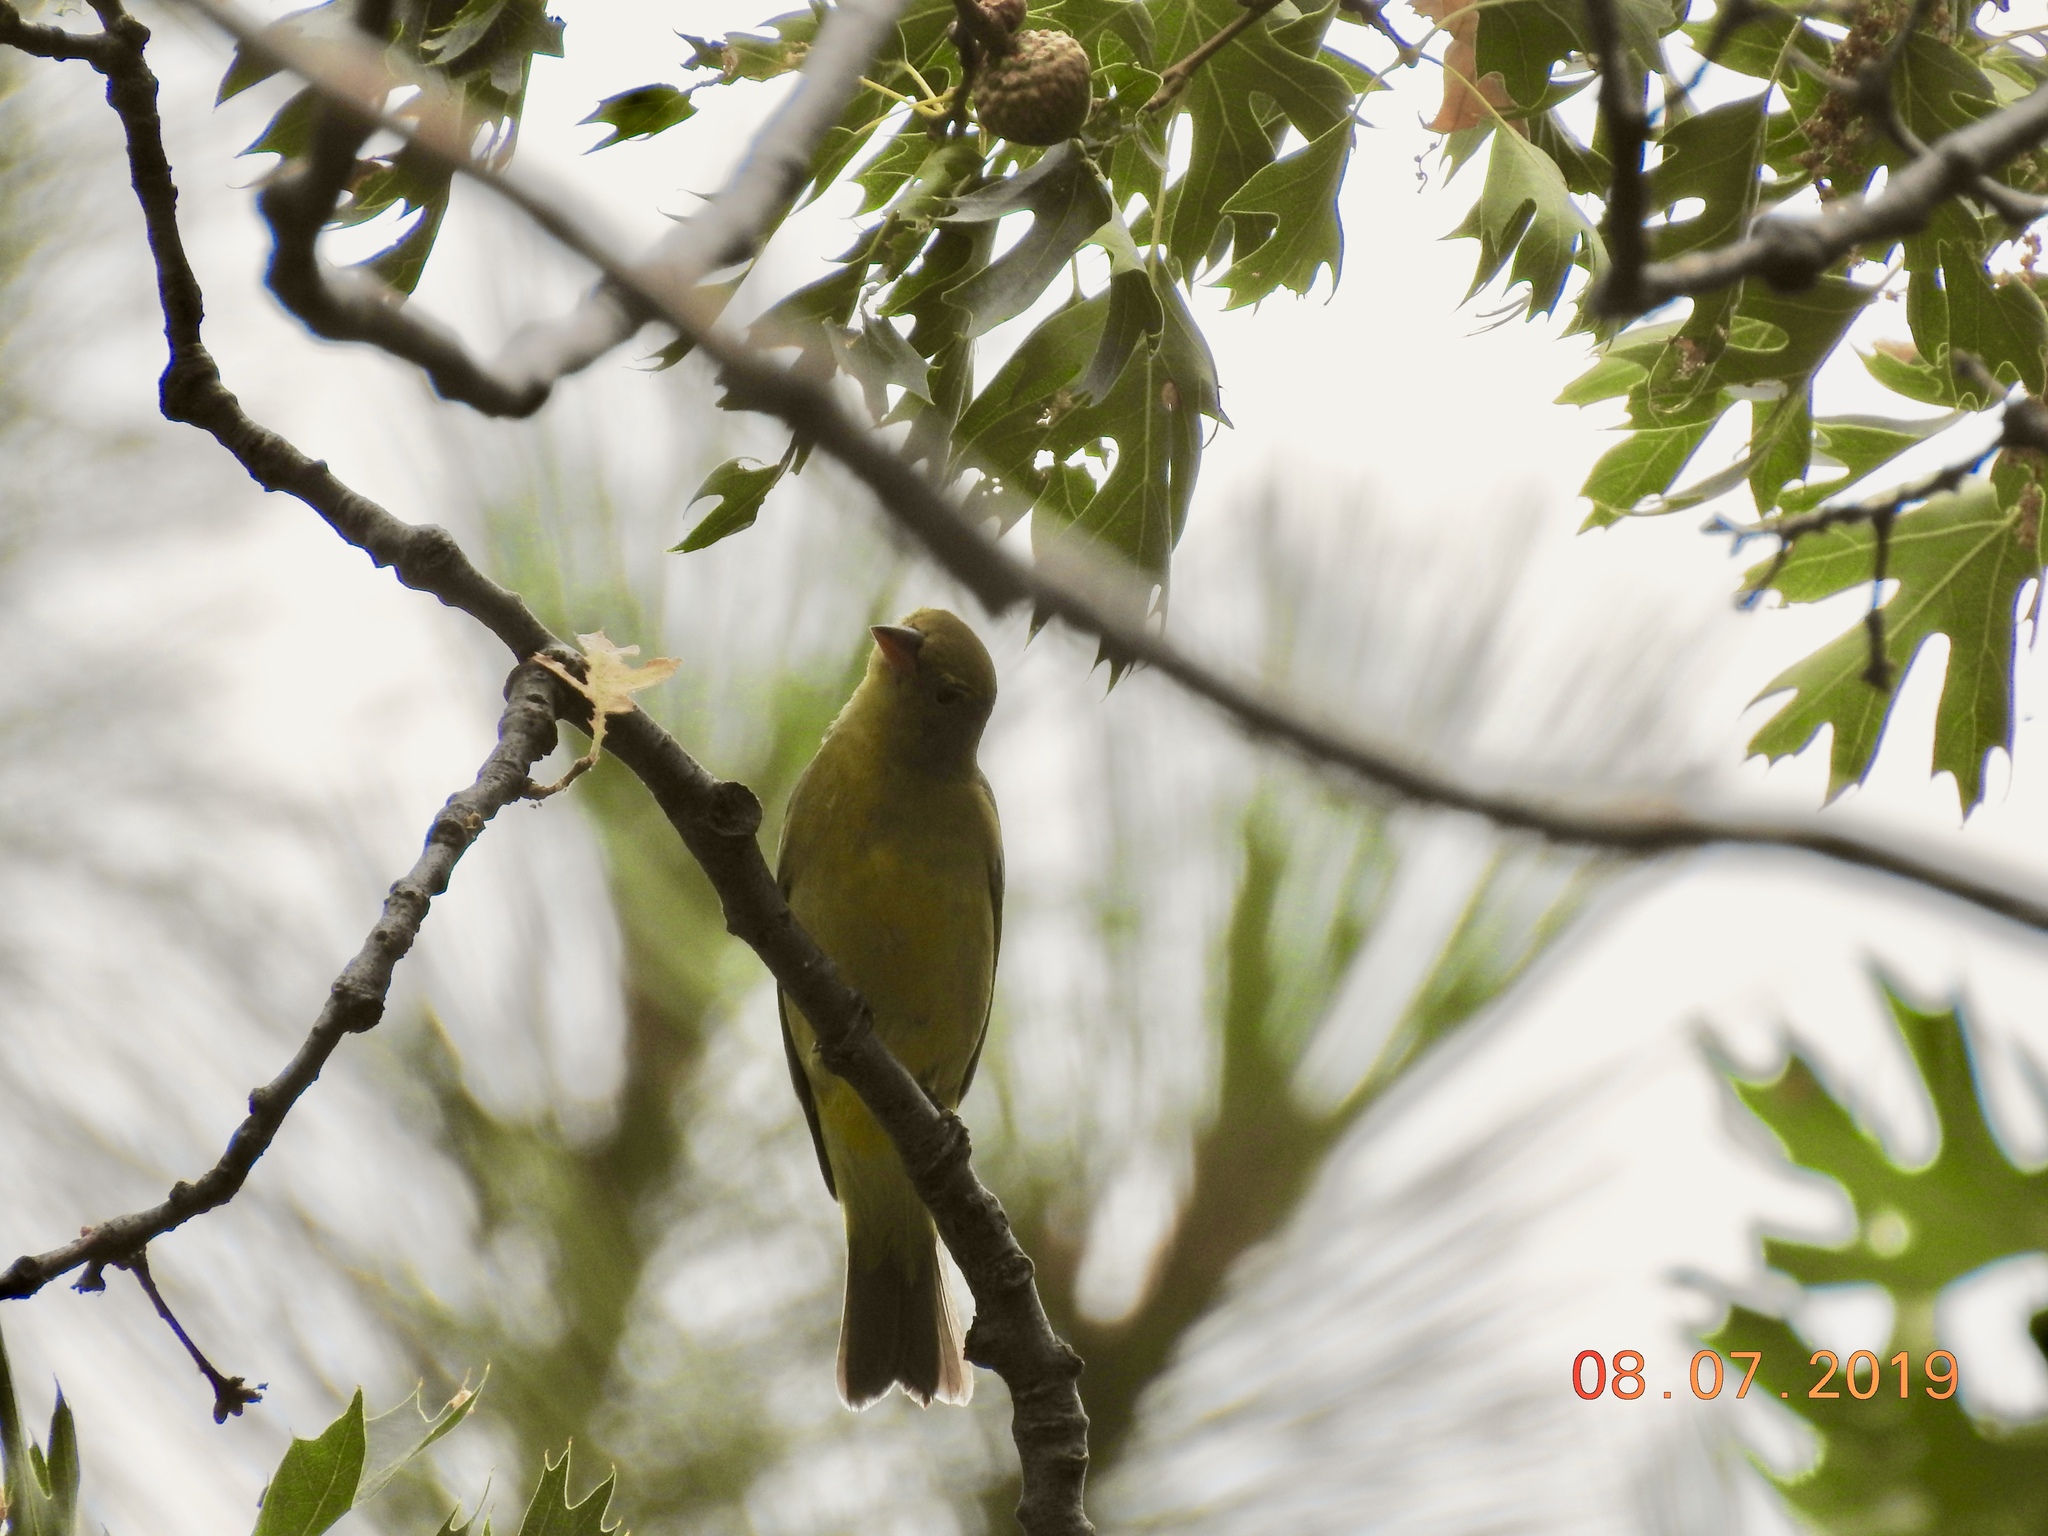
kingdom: Animalia
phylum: Chordata
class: Aves
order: Passeriformes
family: Cardinalidae
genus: Piranga
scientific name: Piranga ludoviciana
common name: Western tanager
